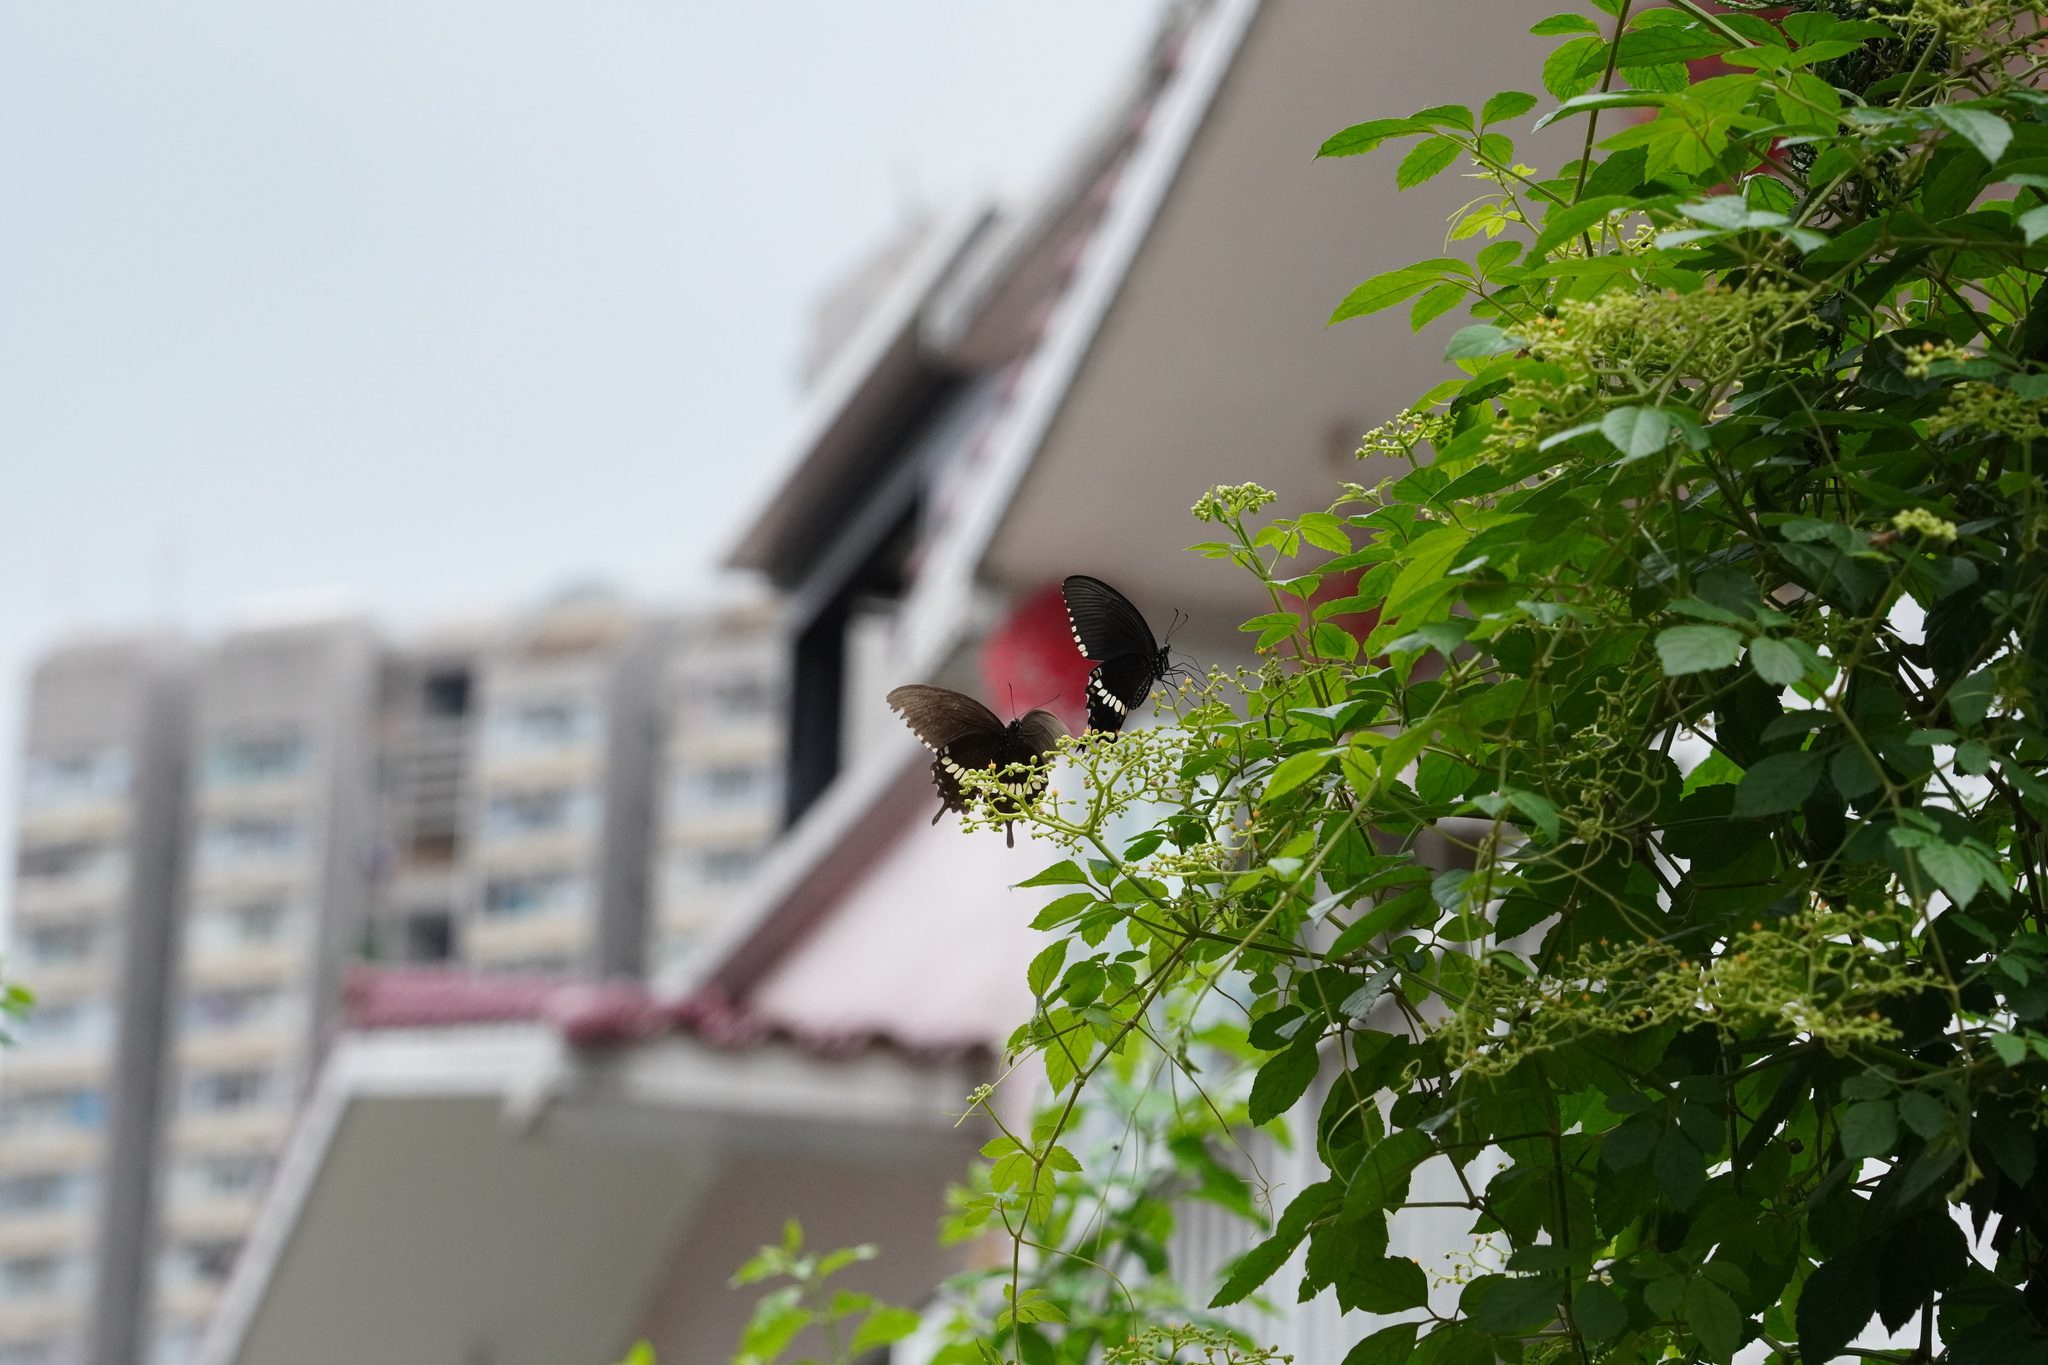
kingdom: Animalia
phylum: Arthropoda
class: Insecta
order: Lepidoptera
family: Papilionidae
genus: Papilio
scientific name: Papilio polytes
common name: Common mormon
